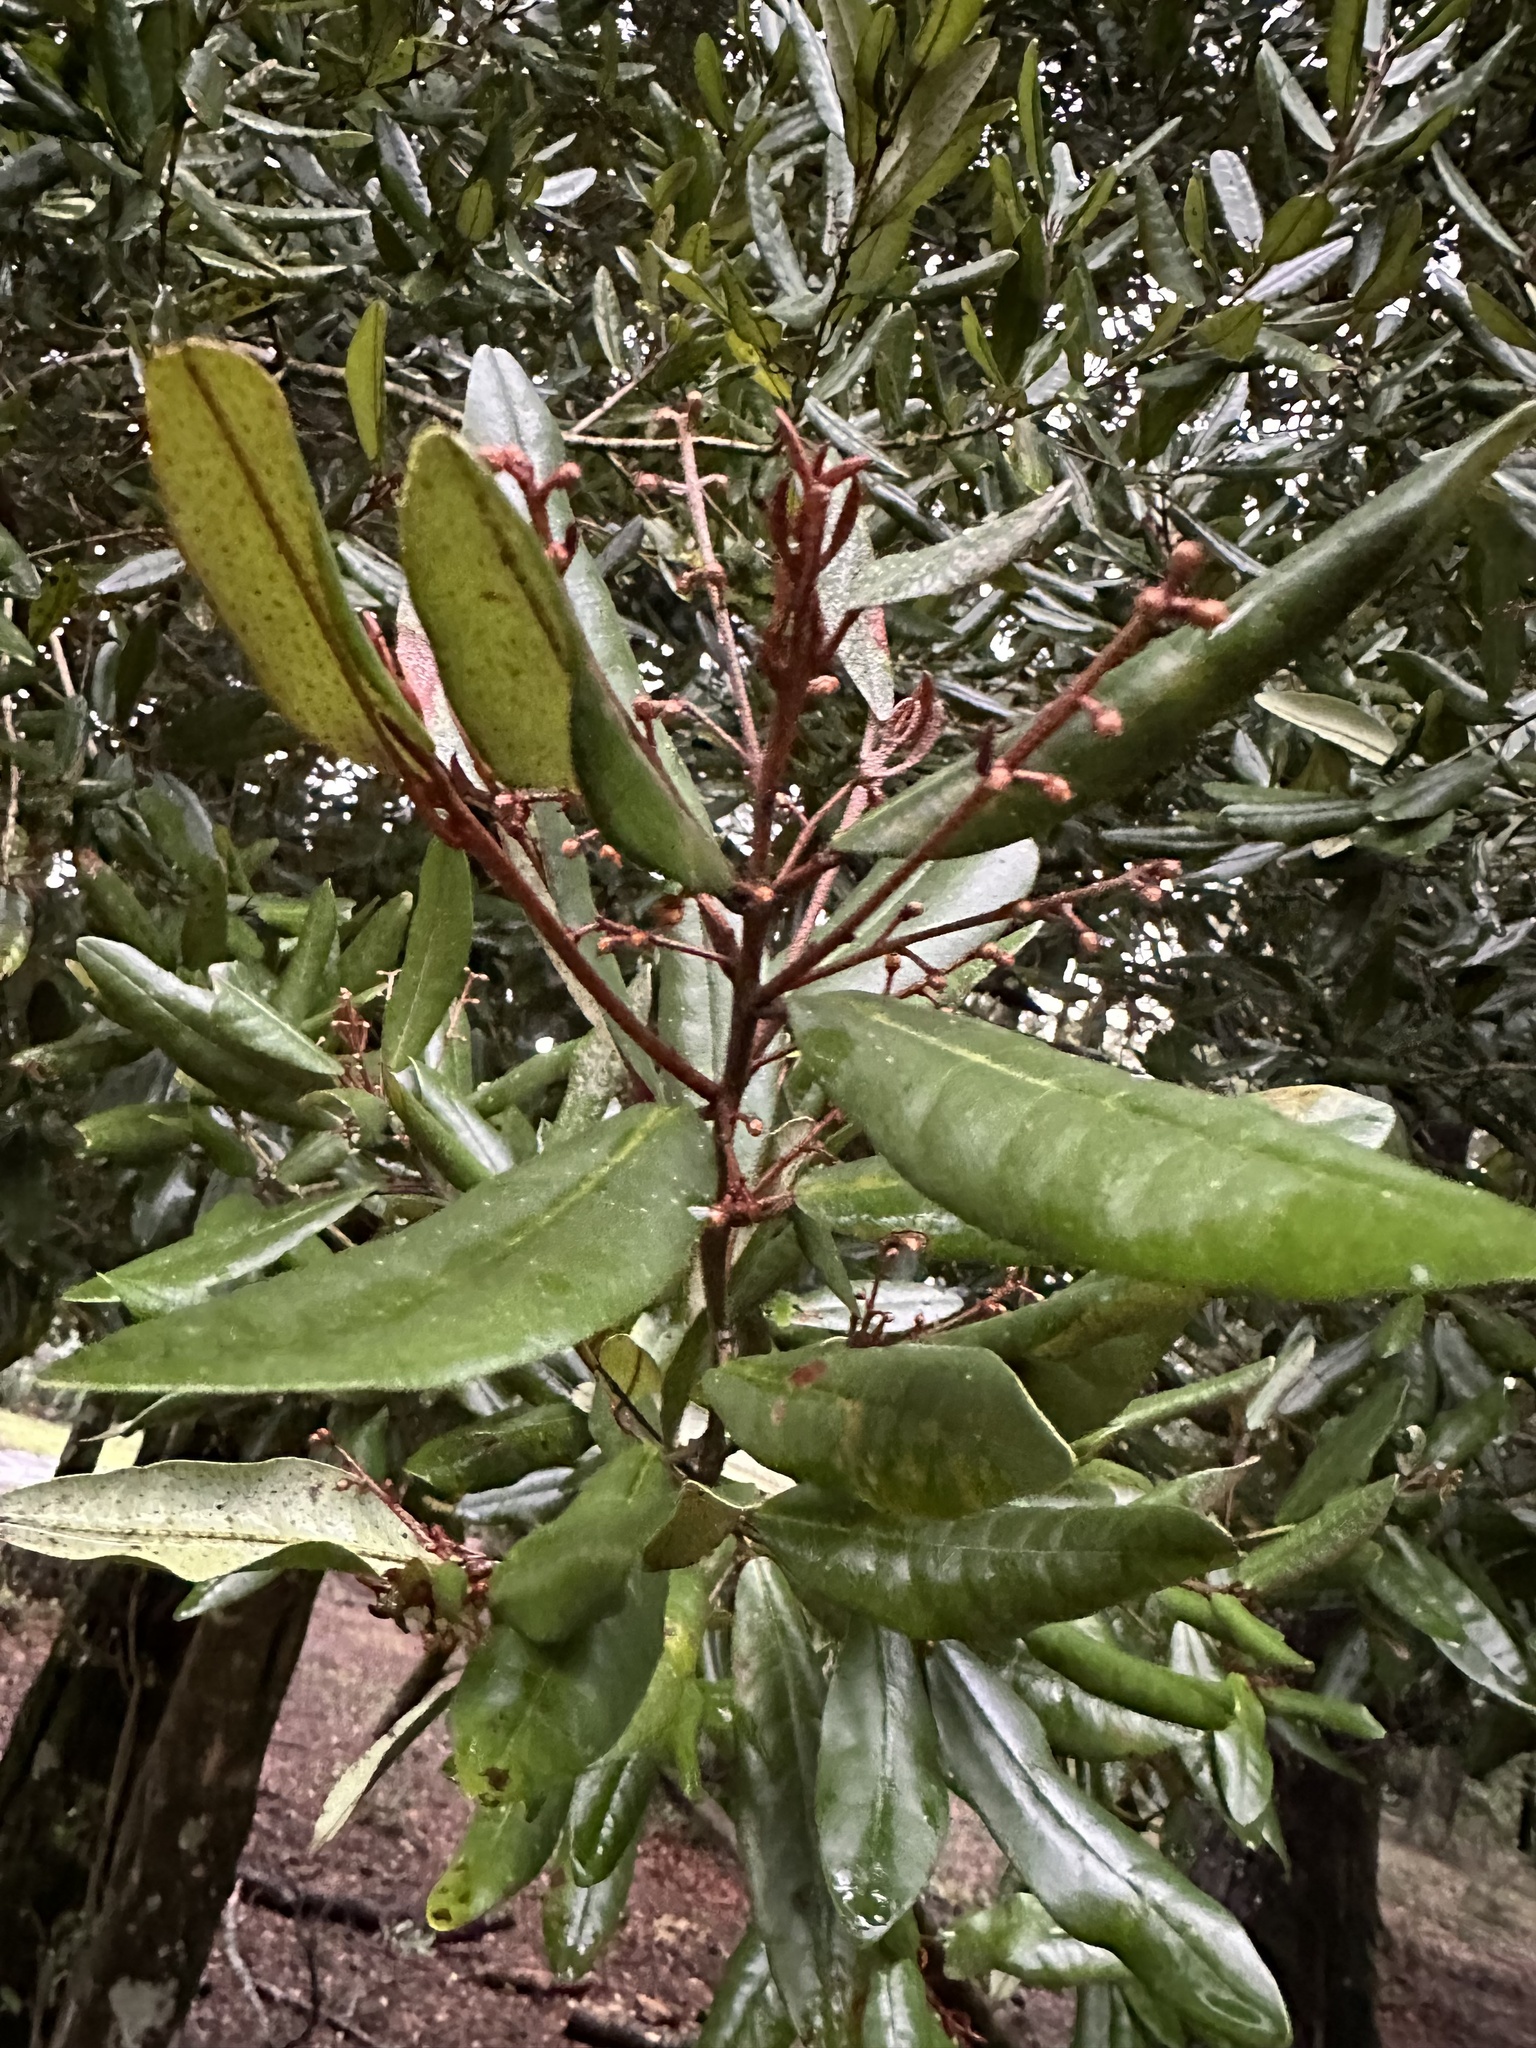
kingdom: Plantae
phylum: Tracheophyta
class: Magnoliopsida
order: Berberidopsidales
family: Aextoxicaceae
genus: Aextoxicon
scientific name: Aextoxicon punctatum
